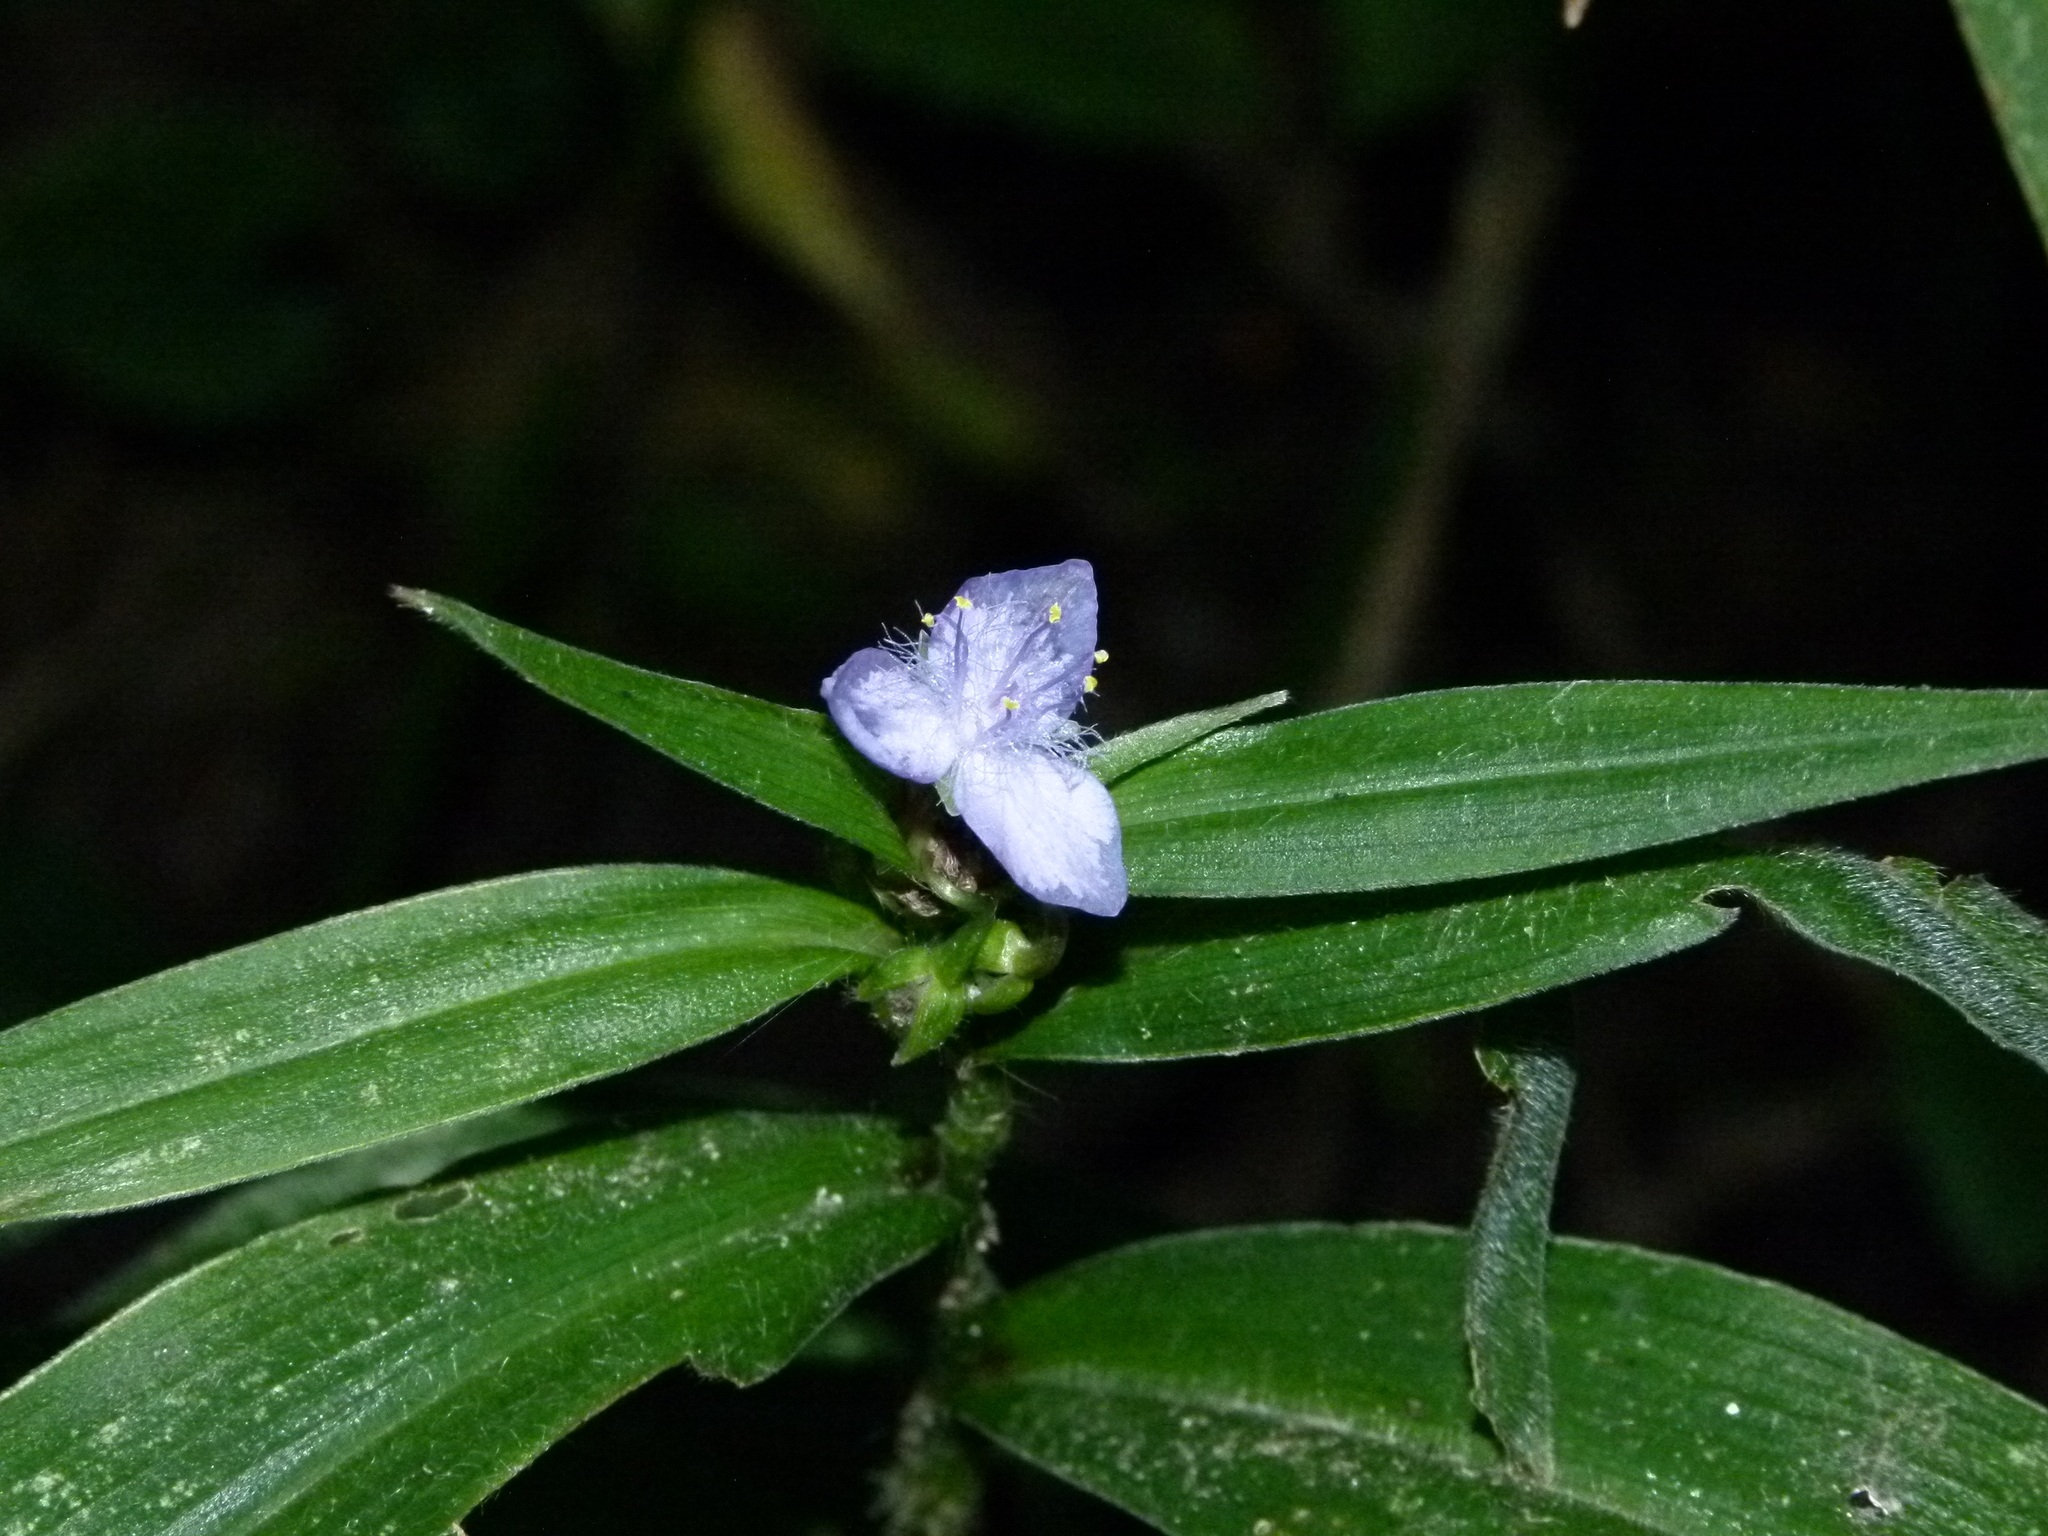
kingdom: Plantae
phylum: Tracheophyta
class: Liliopsida
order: Commelinales
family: Commelinaceae
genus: Tradescantia
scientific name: Tradescantia subaspera
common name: Wide-leaf spiderwort
